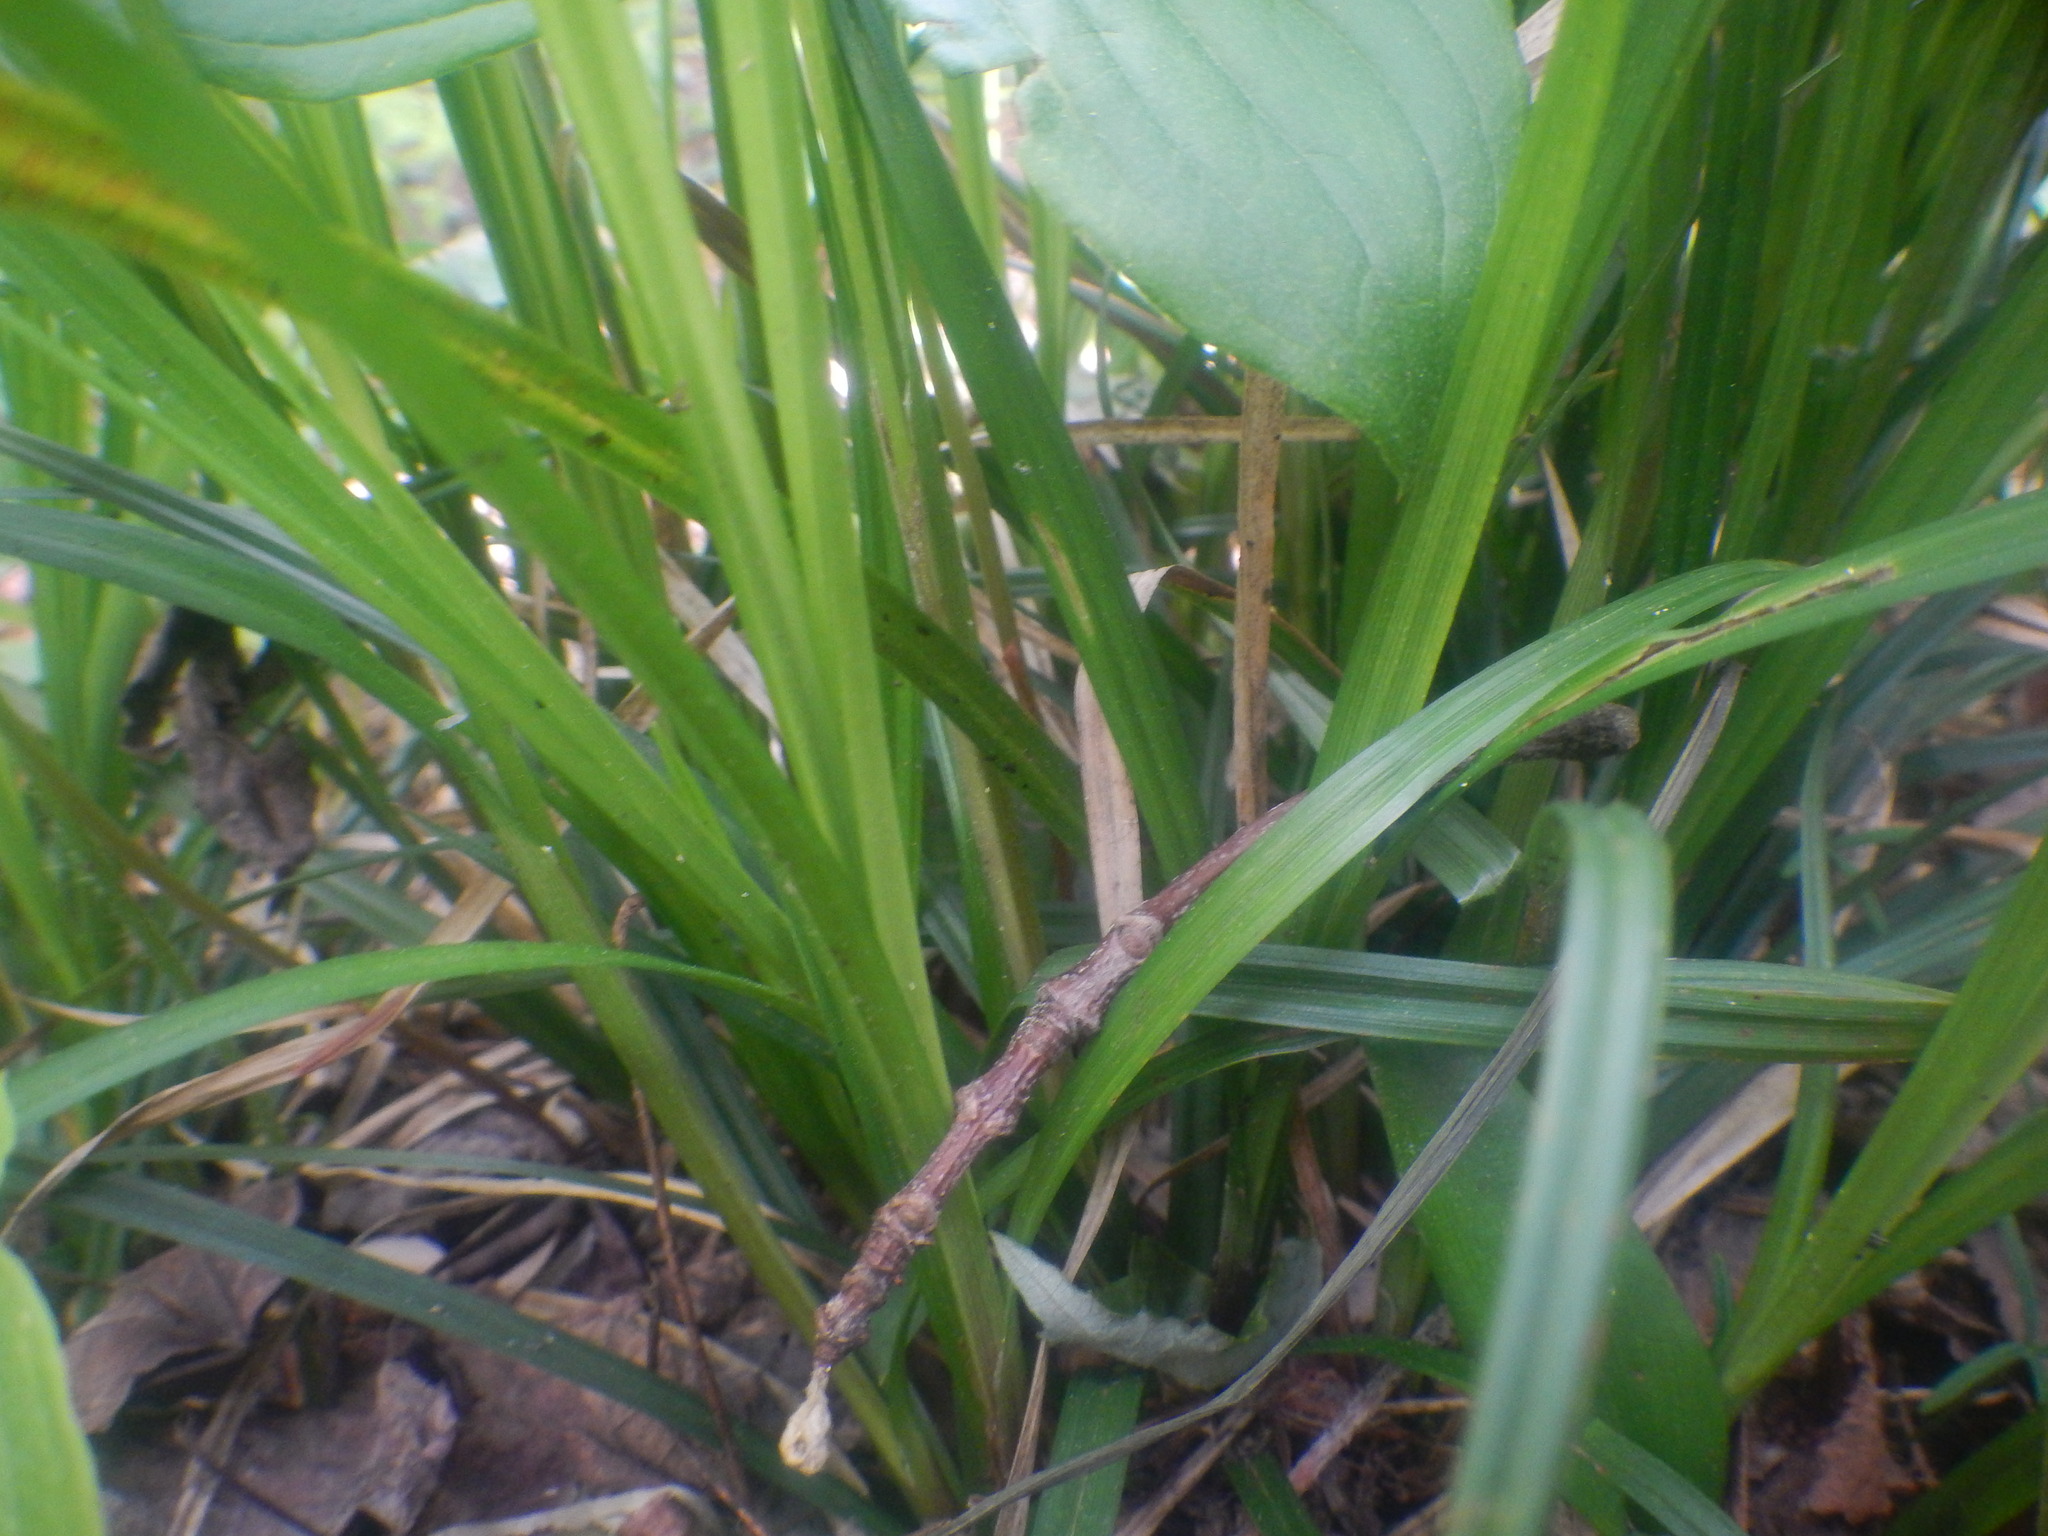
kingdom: Plantae
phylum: Tracheophyta
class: Liliopsida
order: Poales
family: Cyperaceae
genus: Carex
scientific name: Carex intumescens
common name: Greater bladder sedge
